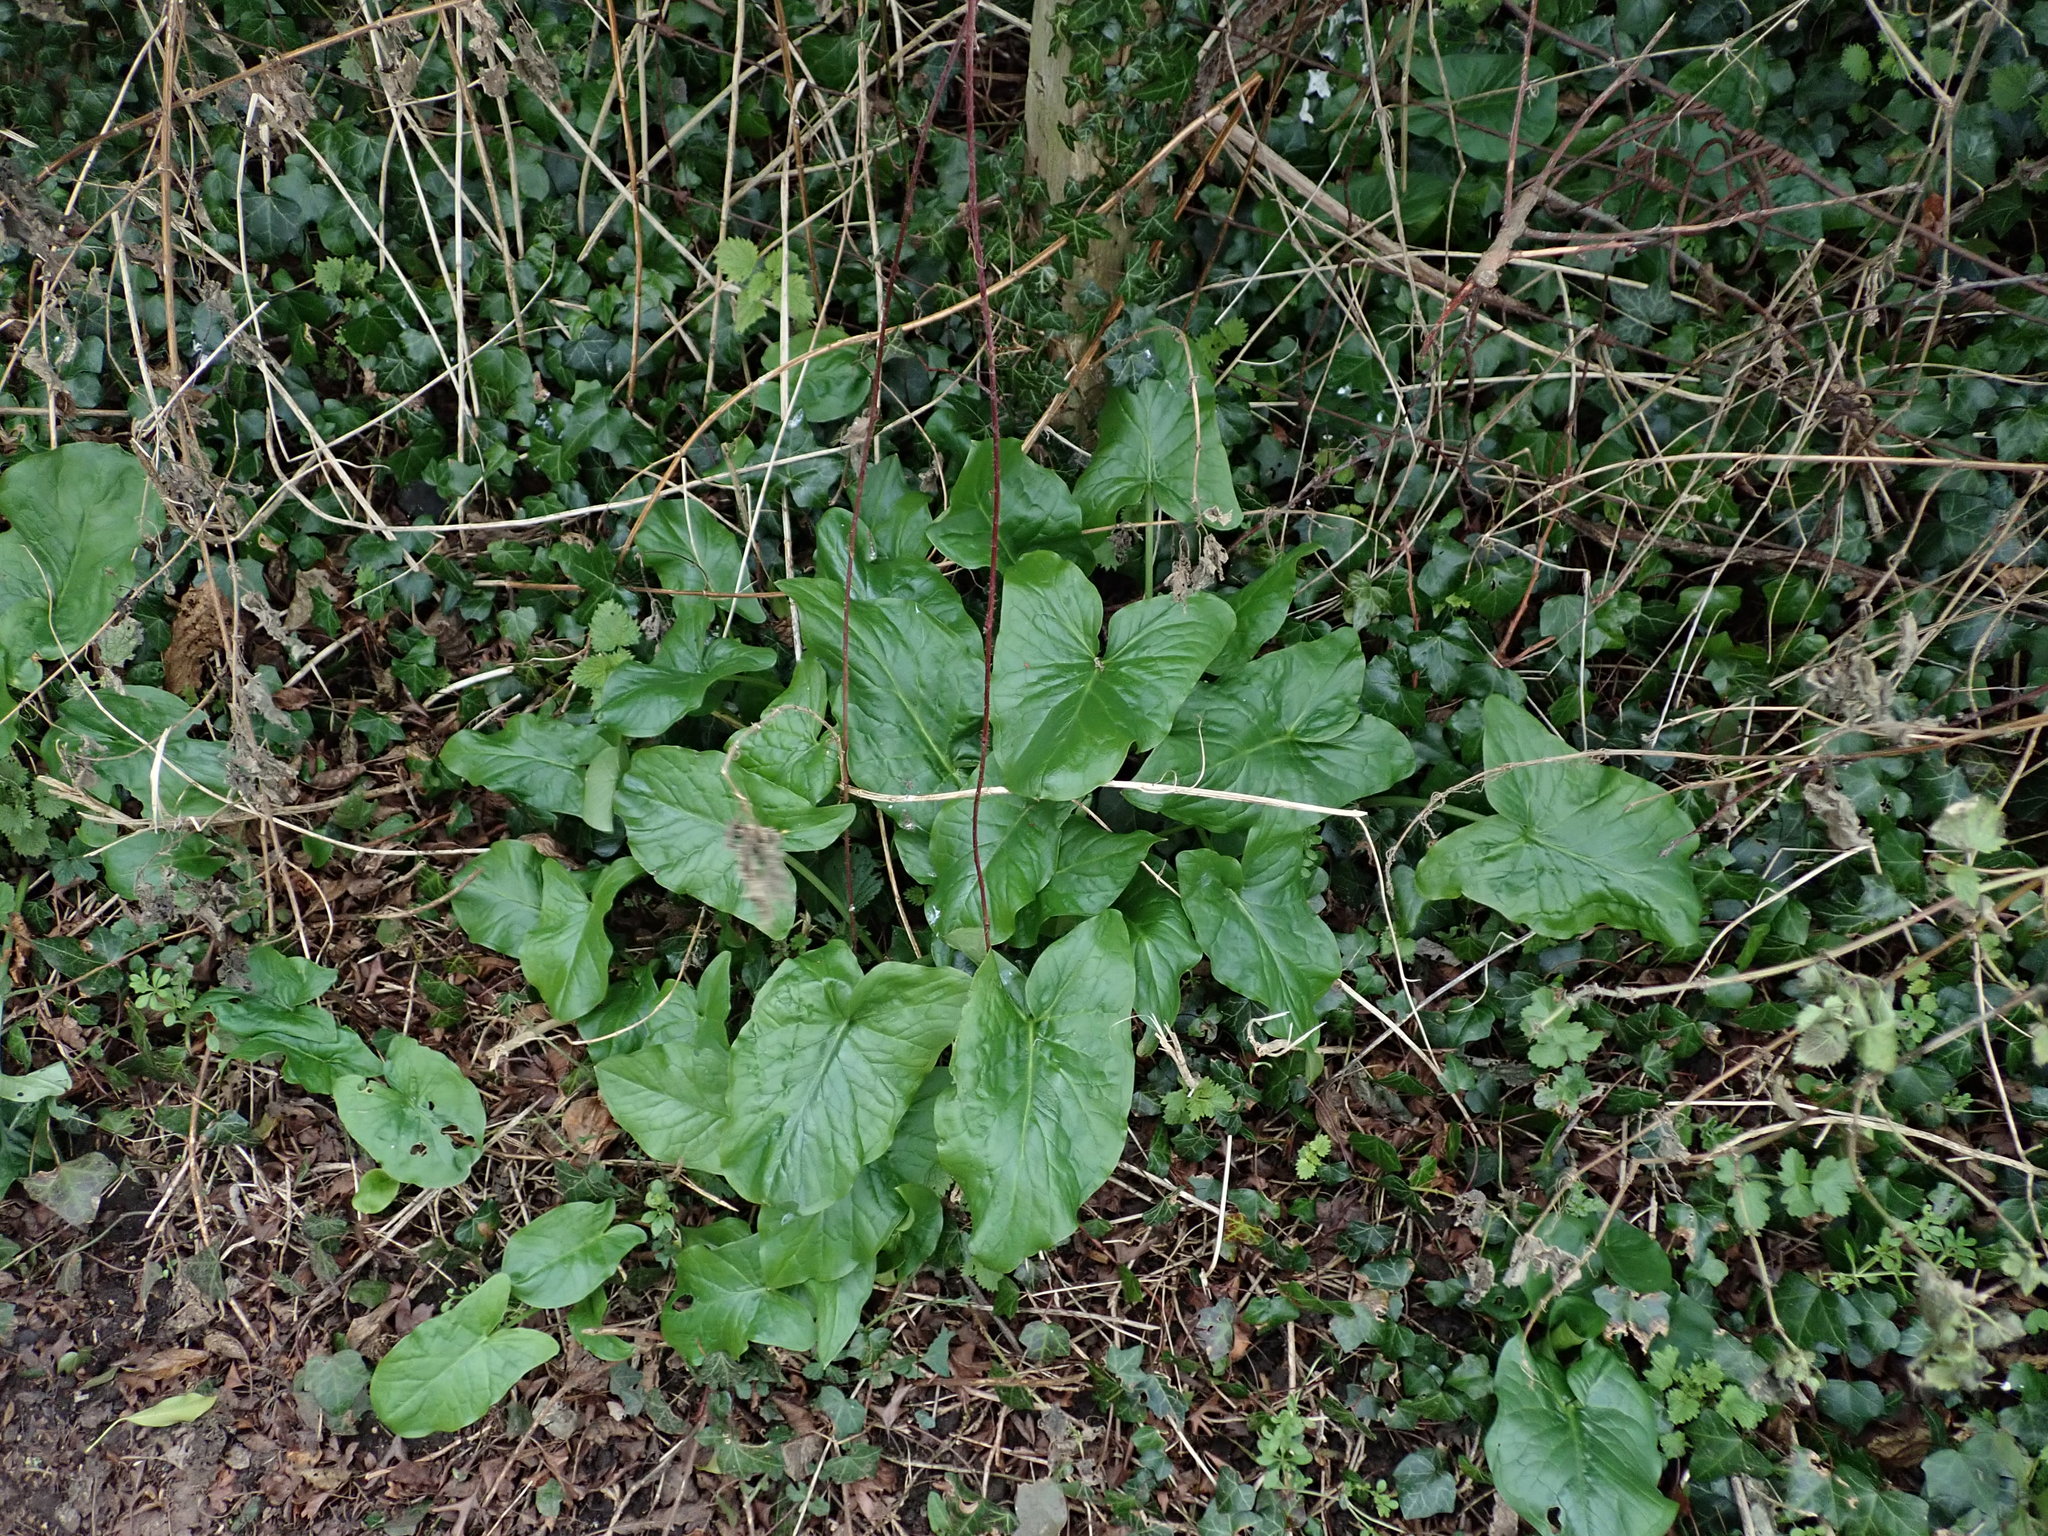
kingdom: Plantae
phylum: Tracheophyta
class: Liliopsida
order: Alismatales
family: Araceae
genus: Arum
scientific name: Arum maculatum
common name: Lords-and-ladies
